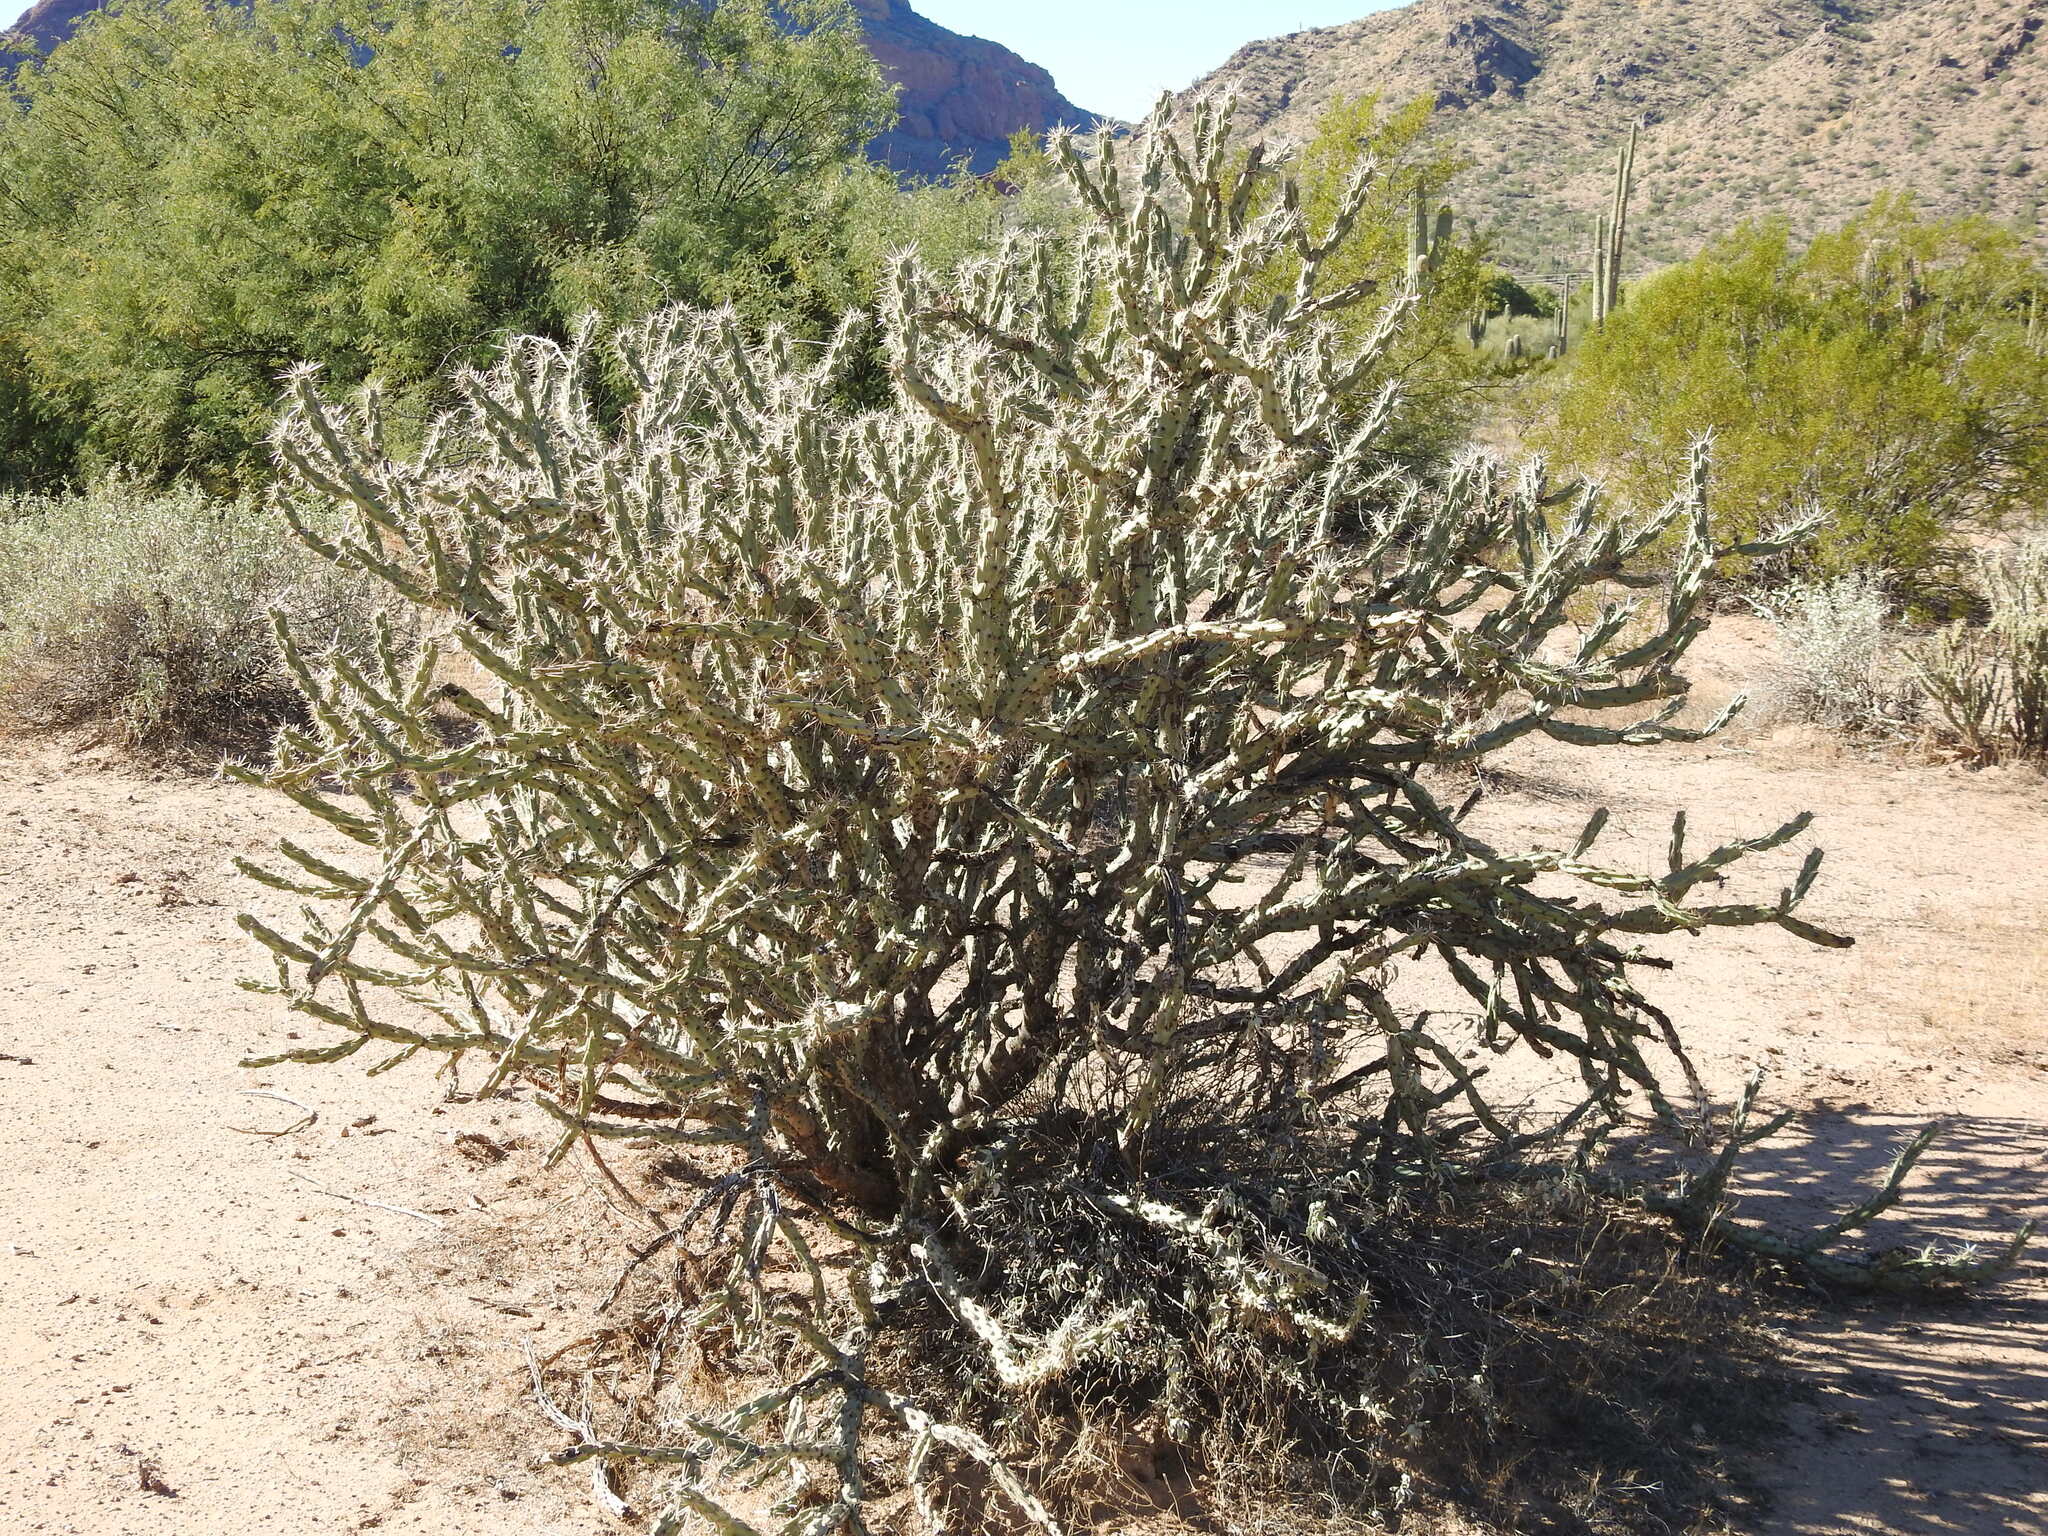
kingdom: Plantae
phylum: Tracheophyta
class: Magnoliopsida
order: Caryophyllales
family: Cactaceae
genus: Cylindropuntia
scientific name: Cylindropuntia acanthocarpa
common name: Buckhorn cholla
